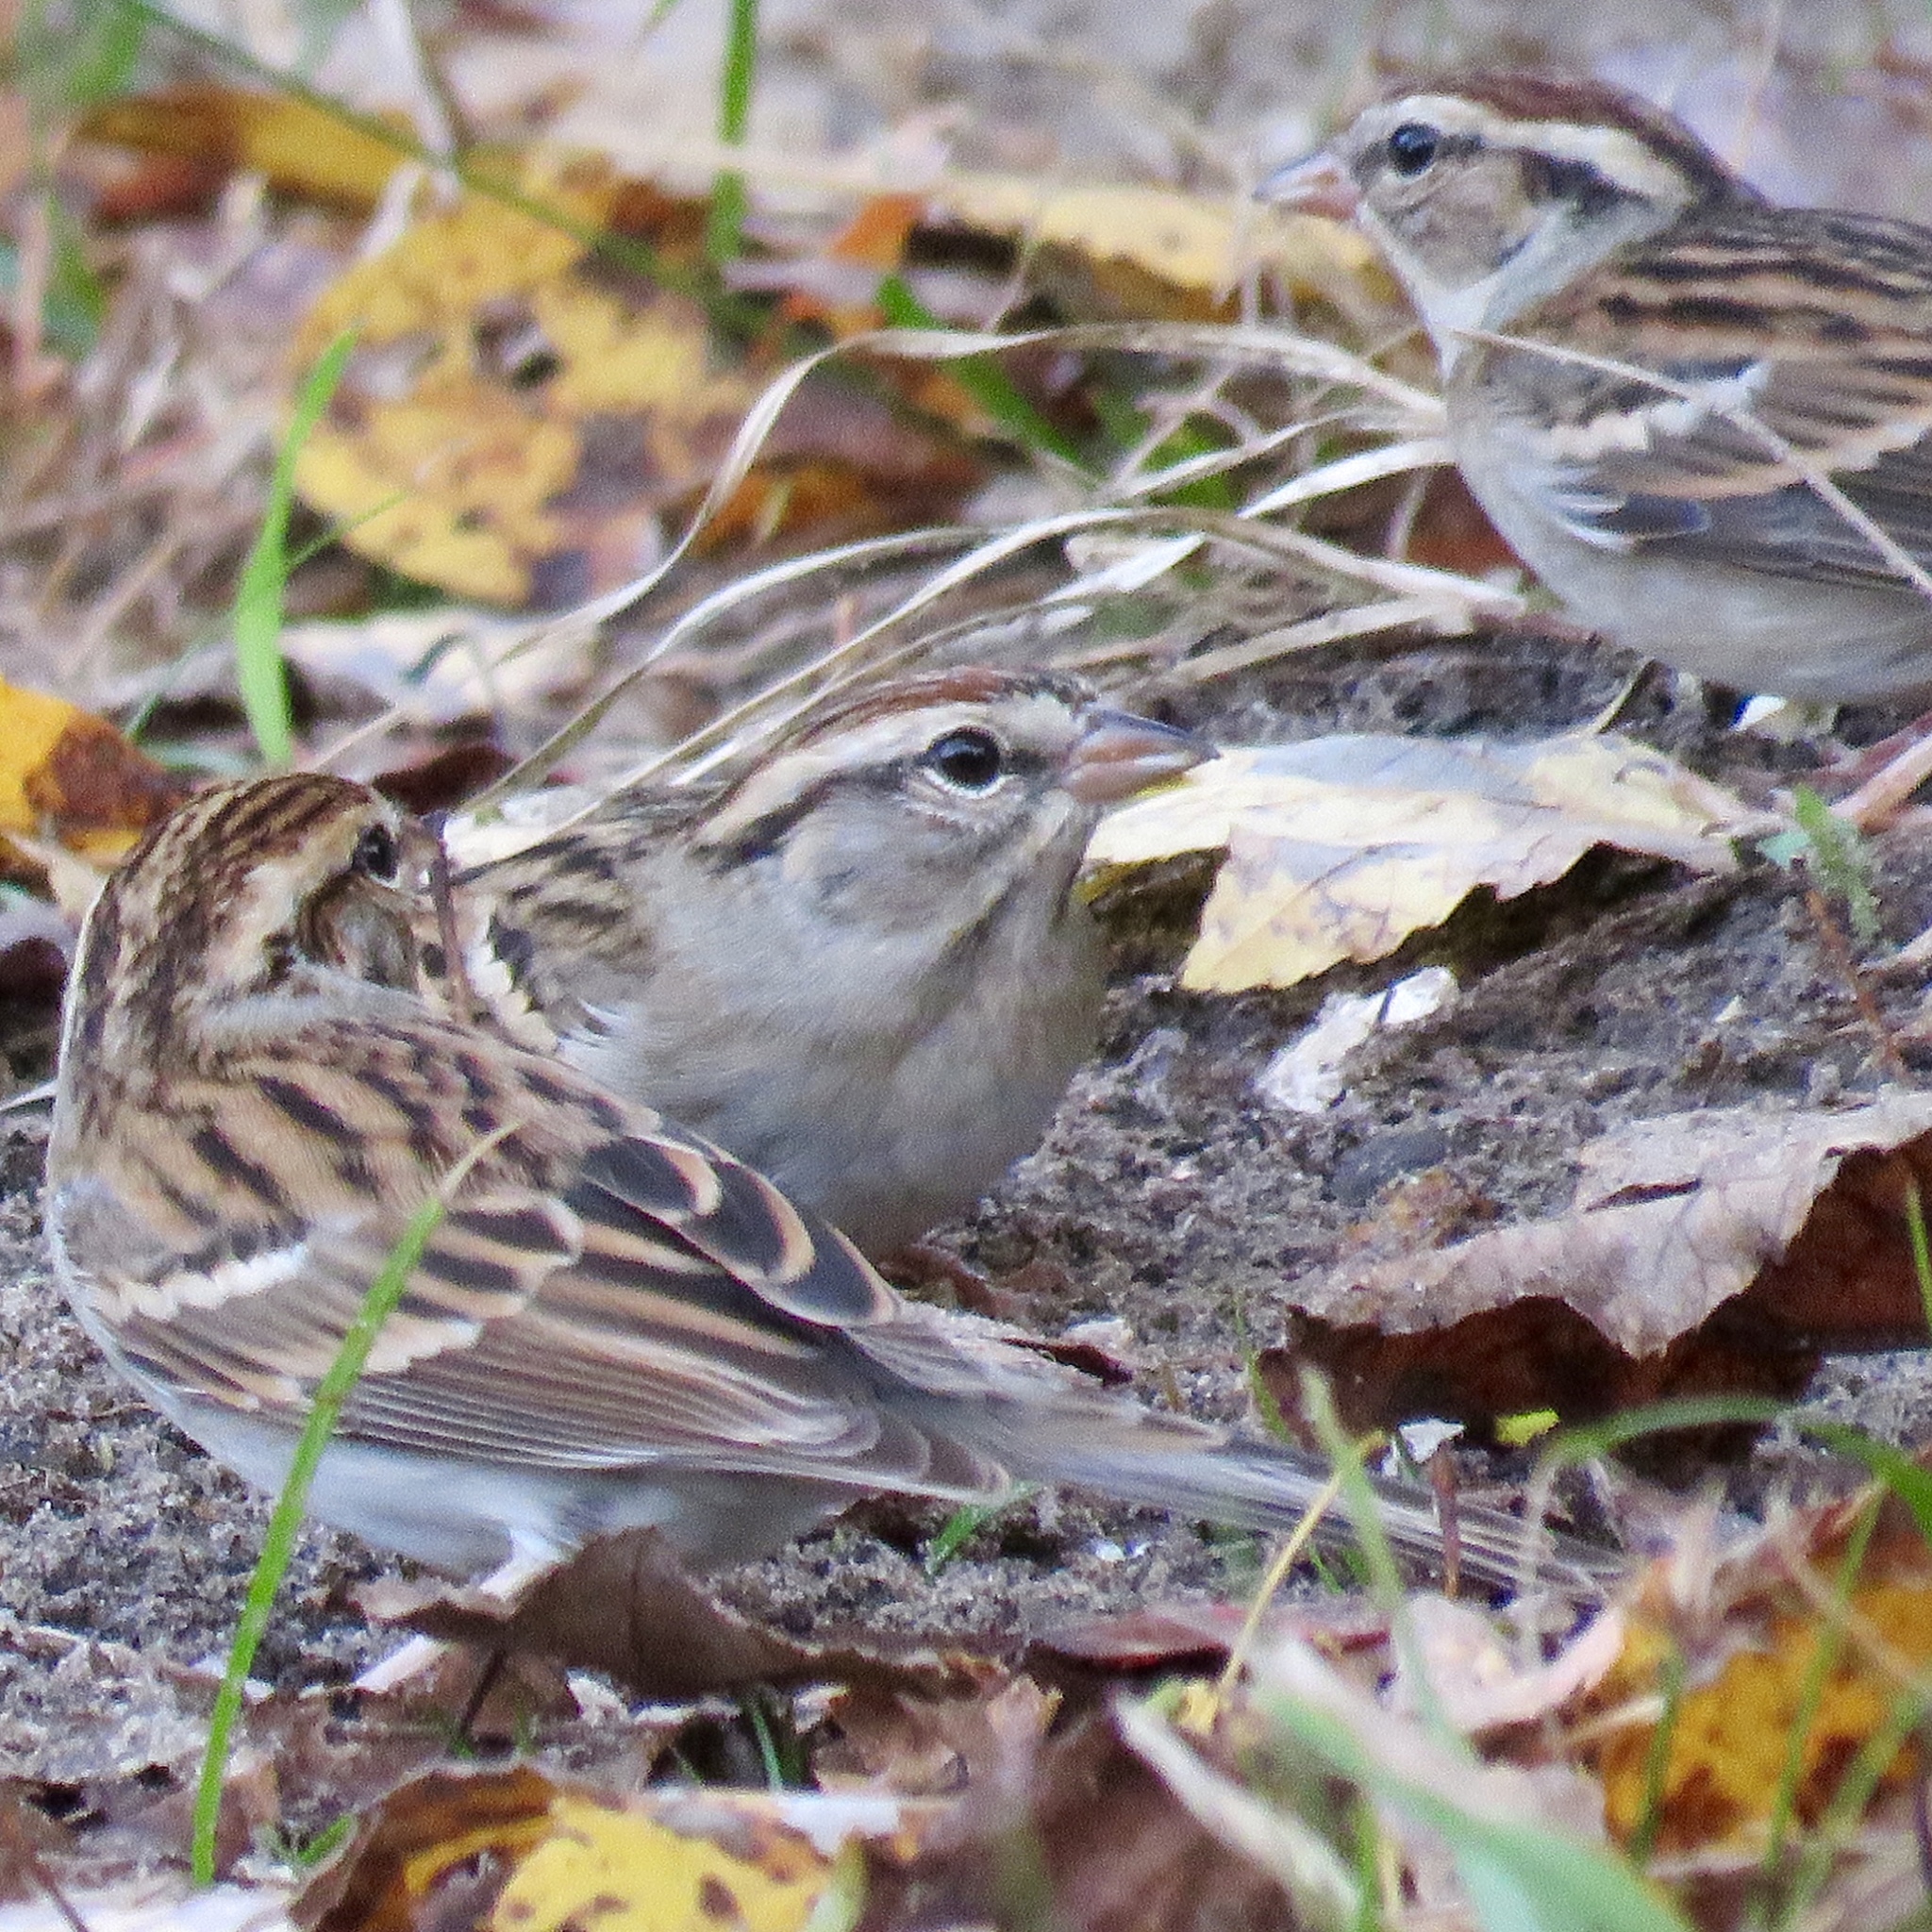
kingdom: Animalia
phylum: Chordata
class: Aves
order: Passeriformes
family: Passerellidae
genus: Spizella
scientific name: Spizella passerina
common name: Chipping sparrow
